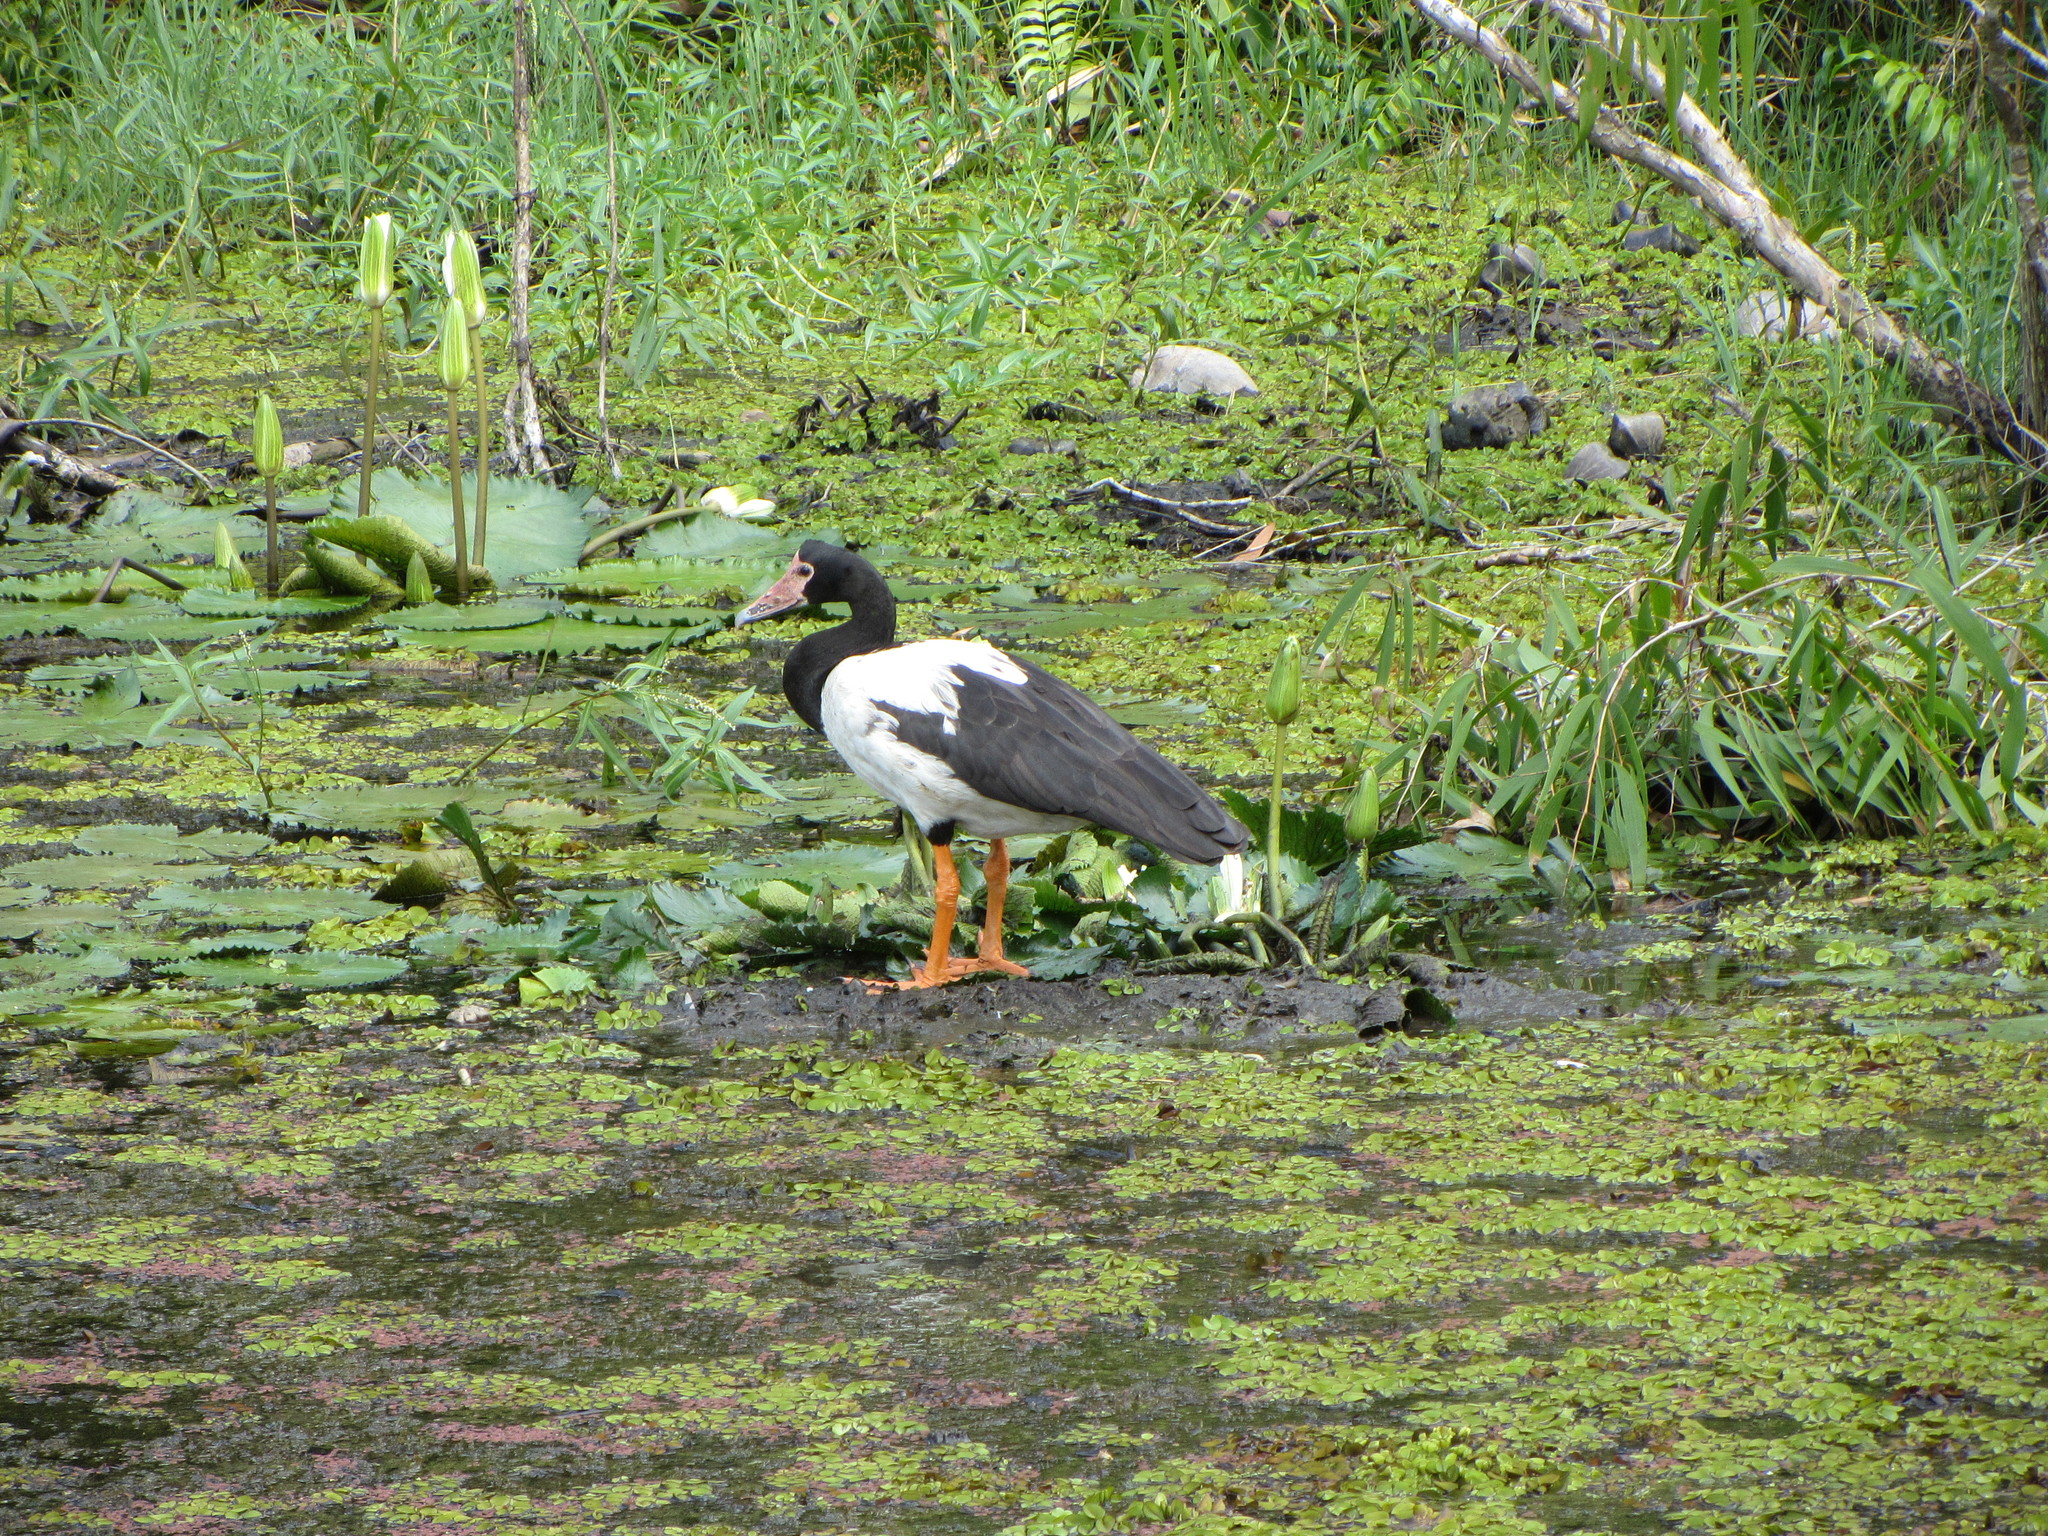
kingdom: Animalia
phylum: Chordata
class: Aves
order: Anseriformes
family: Anseranatidae
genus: Anseranas
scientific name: Anseranas semipalmata
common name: Magpie goose
